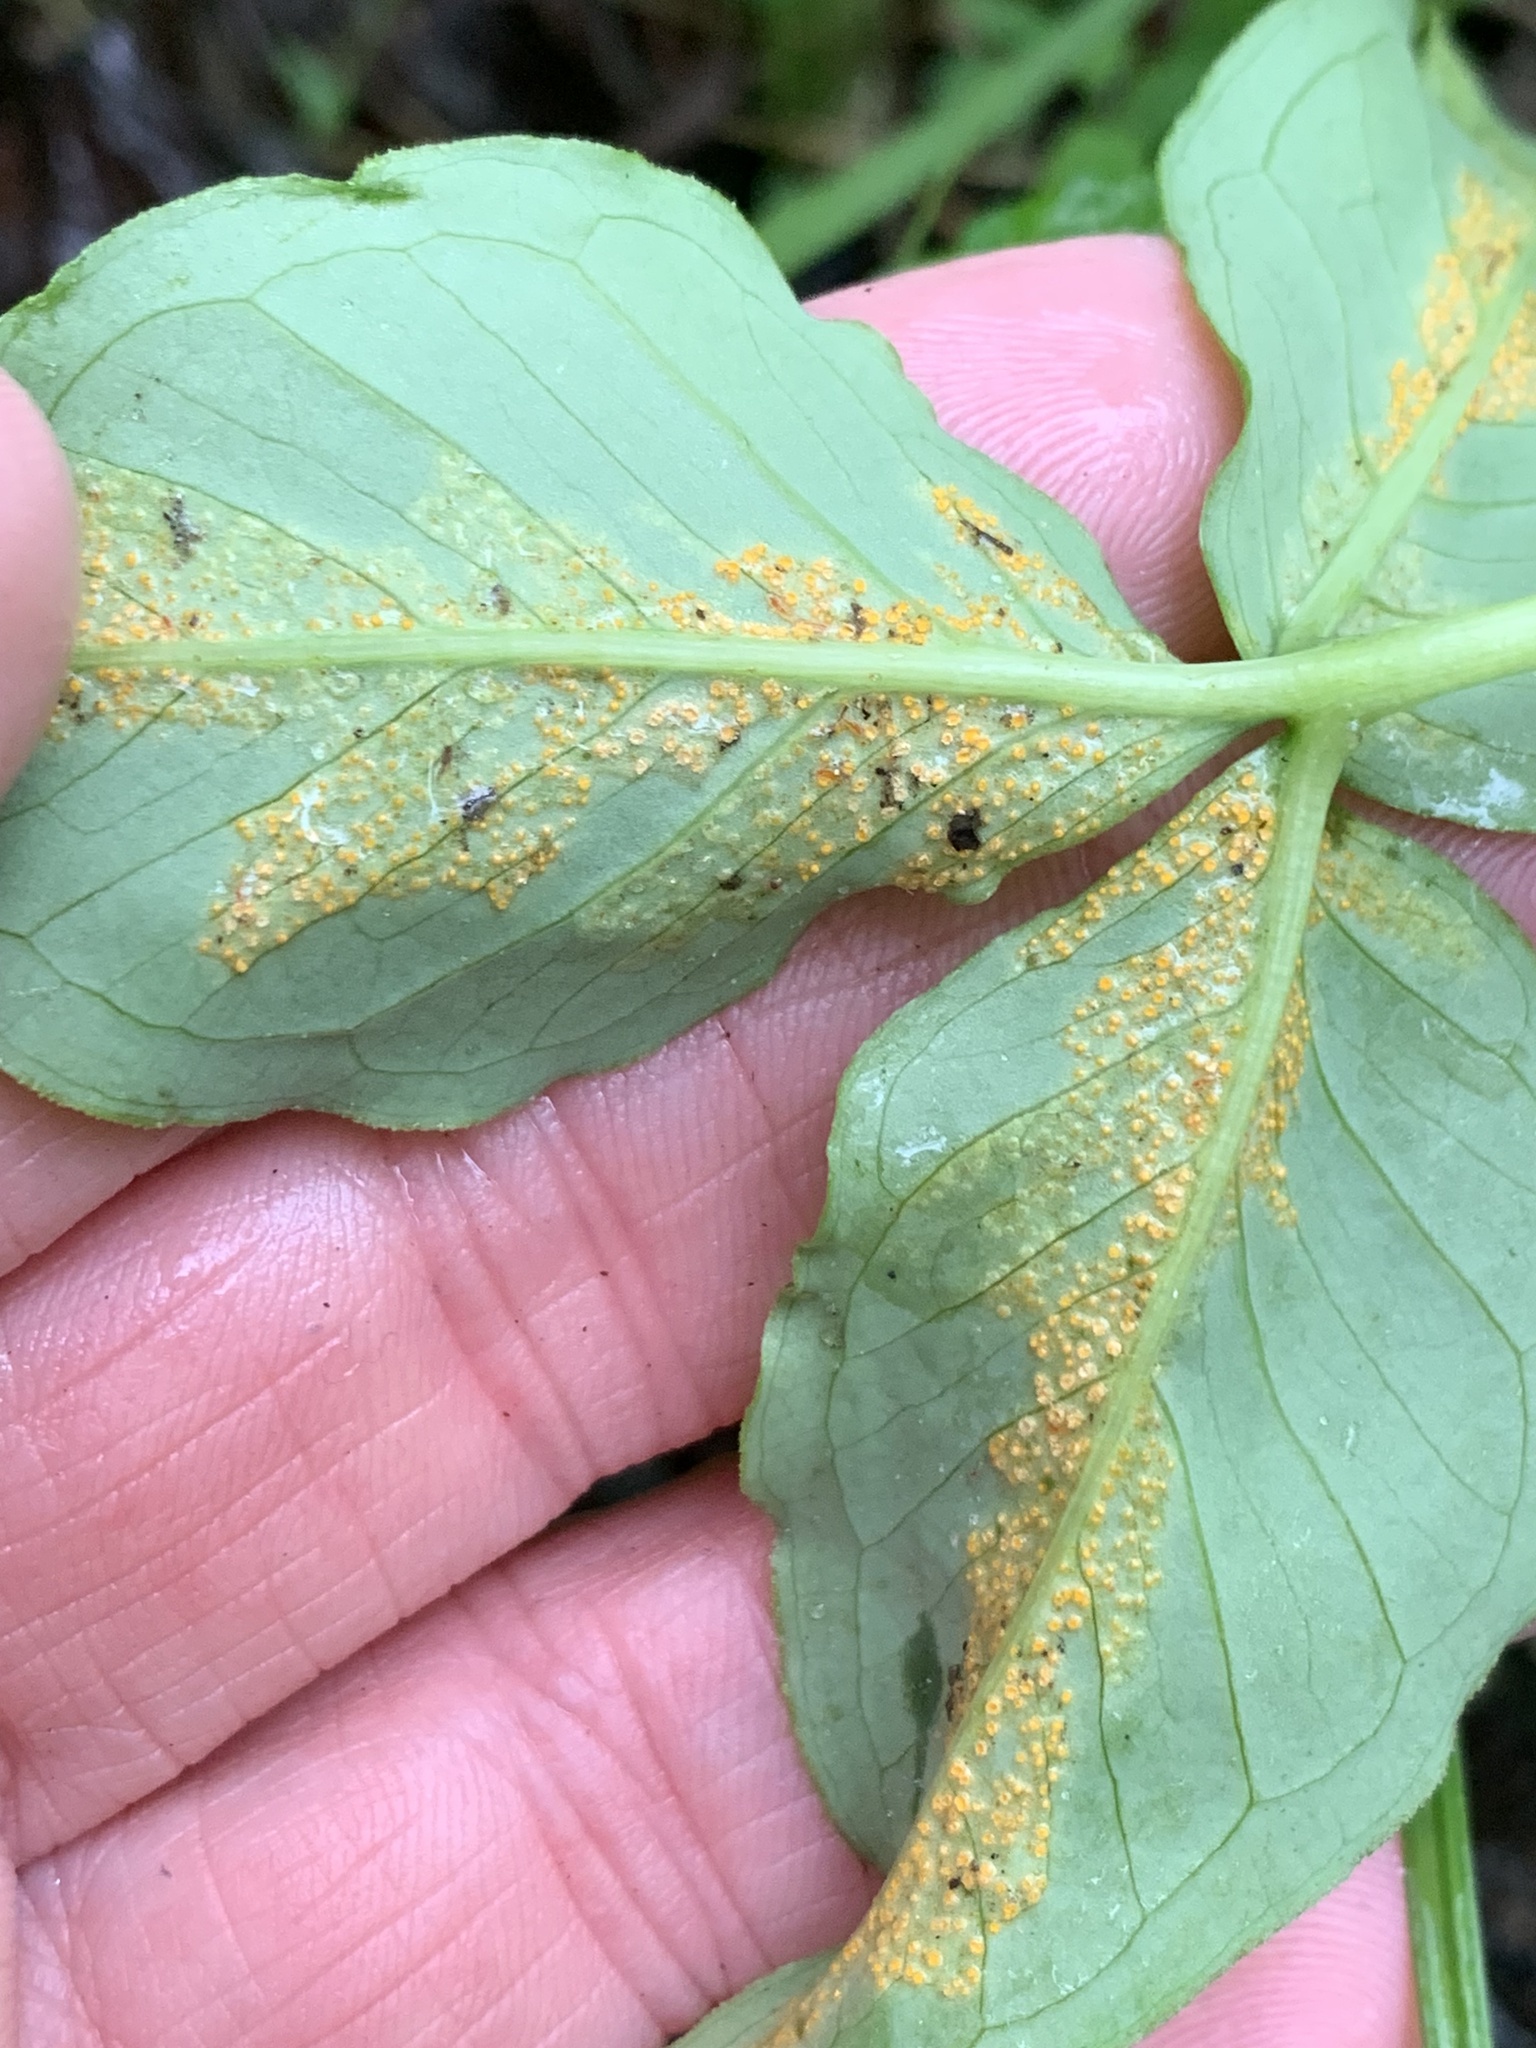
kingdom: Fungi
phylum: Basidiomycota
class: Pucciniomycetes
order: Pucciniales
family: Pucciniaceae
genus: Uromyces
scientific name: Uromyces ari-triphylli
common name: Jack-in-the-pulpit rust
